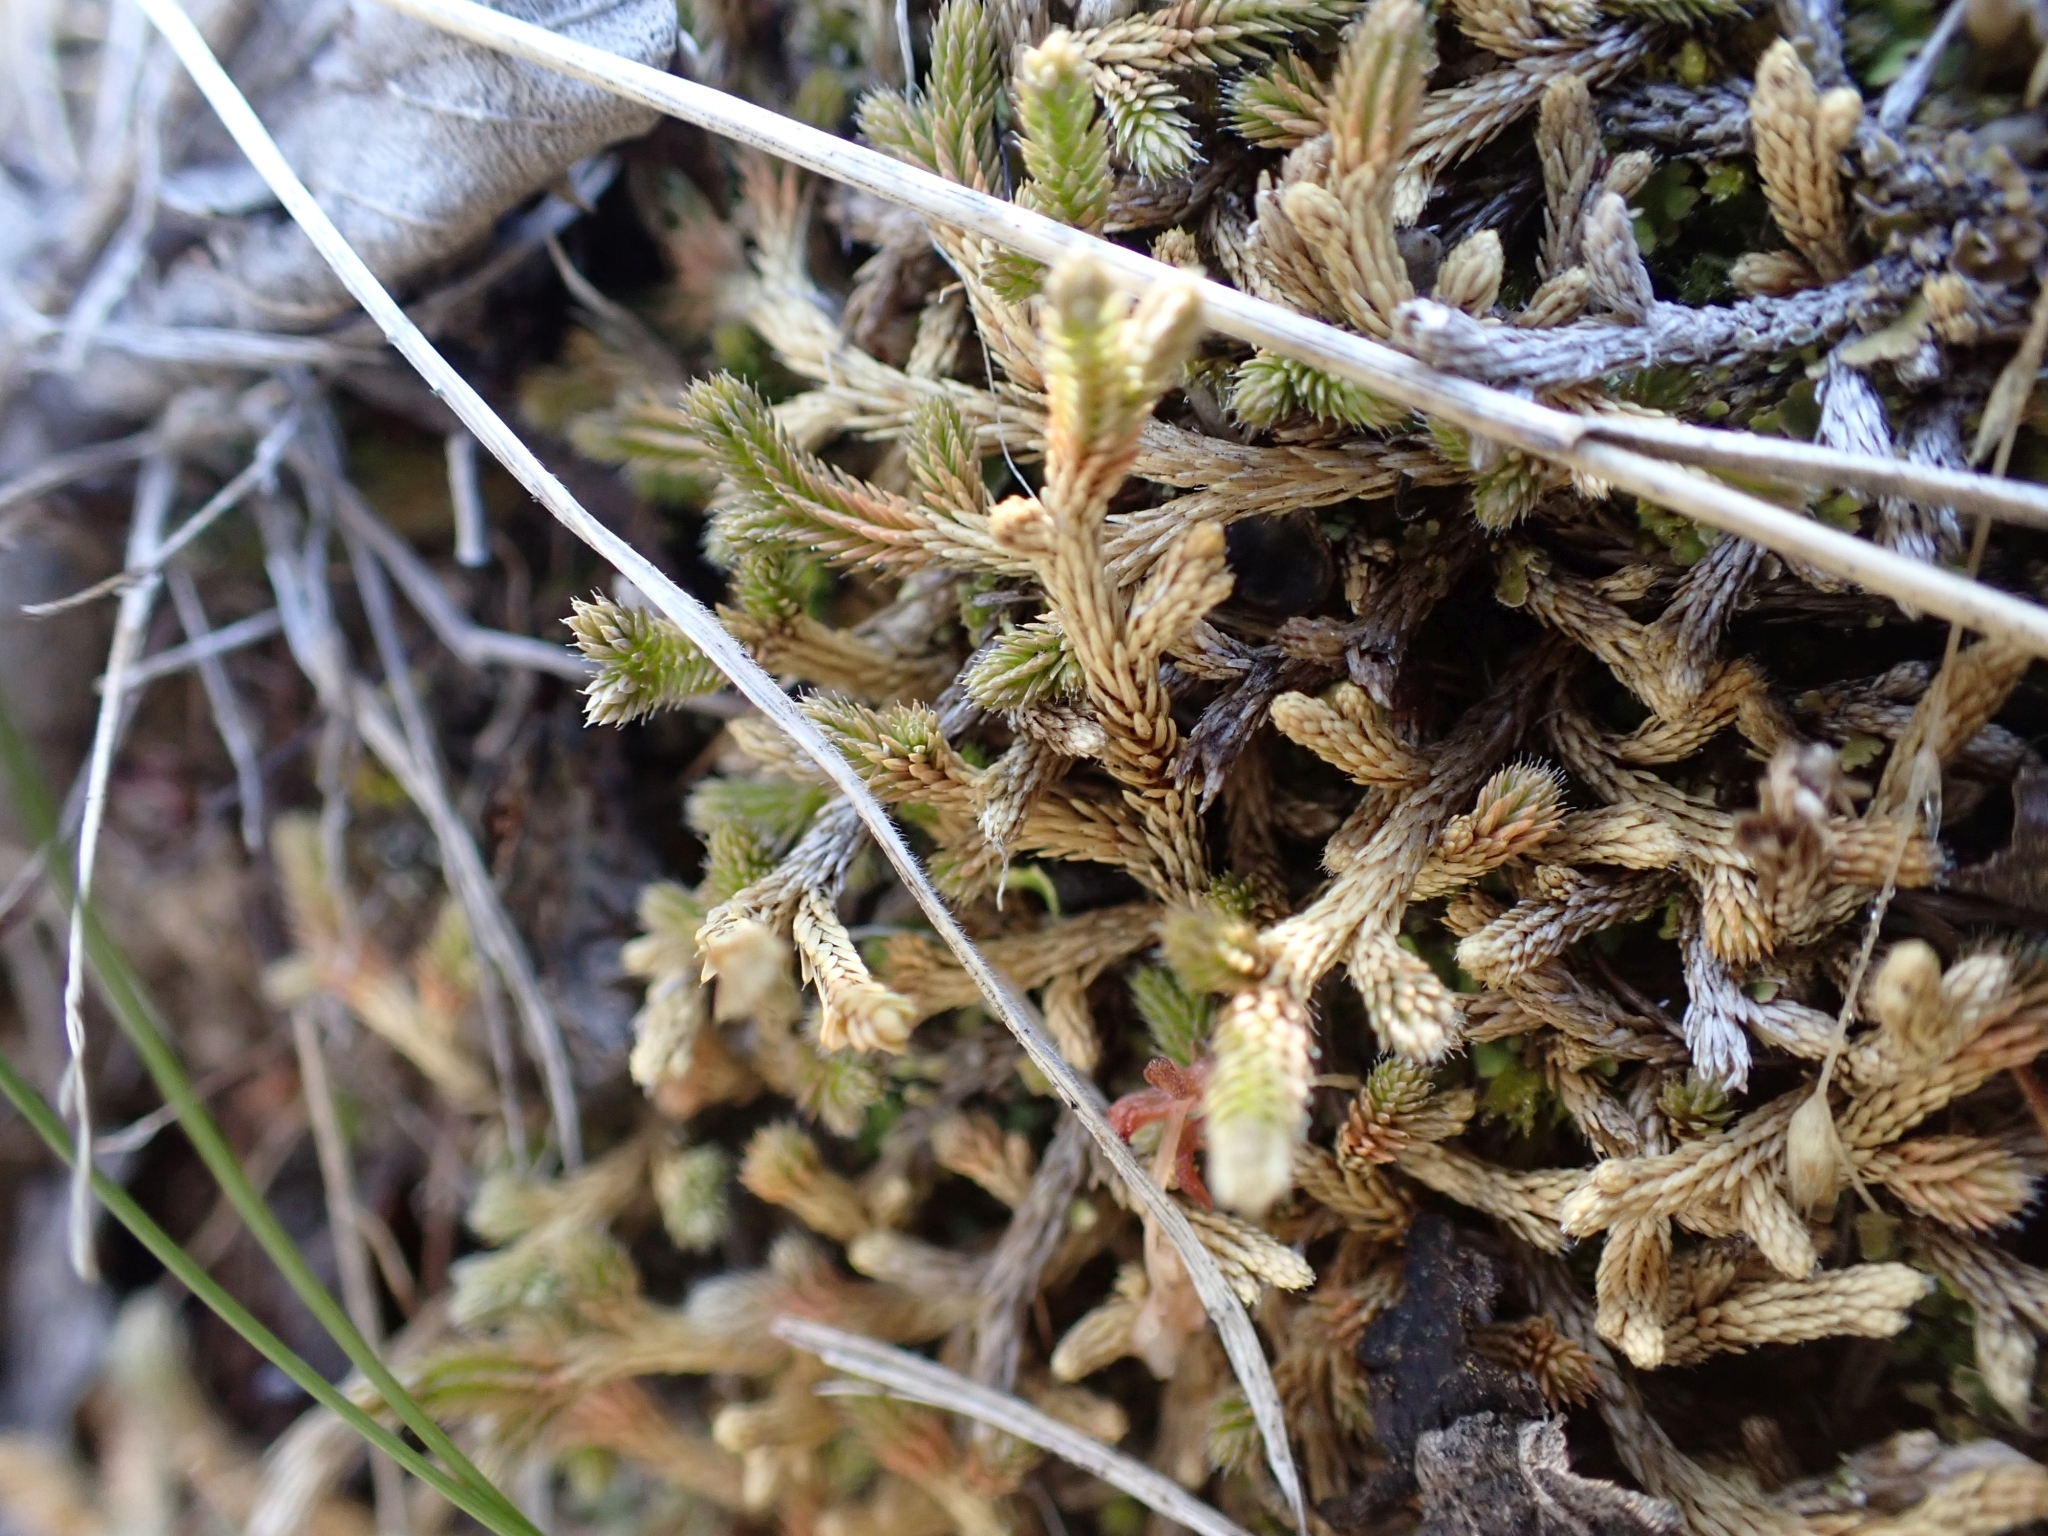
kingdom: Plantae
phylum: Tracheophyta
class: Lycopodiopsida
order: Selaginellales
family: Selaginellaceae
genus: Selaginella
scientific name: Selaginella wallacei
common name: Wallace's selaginella
